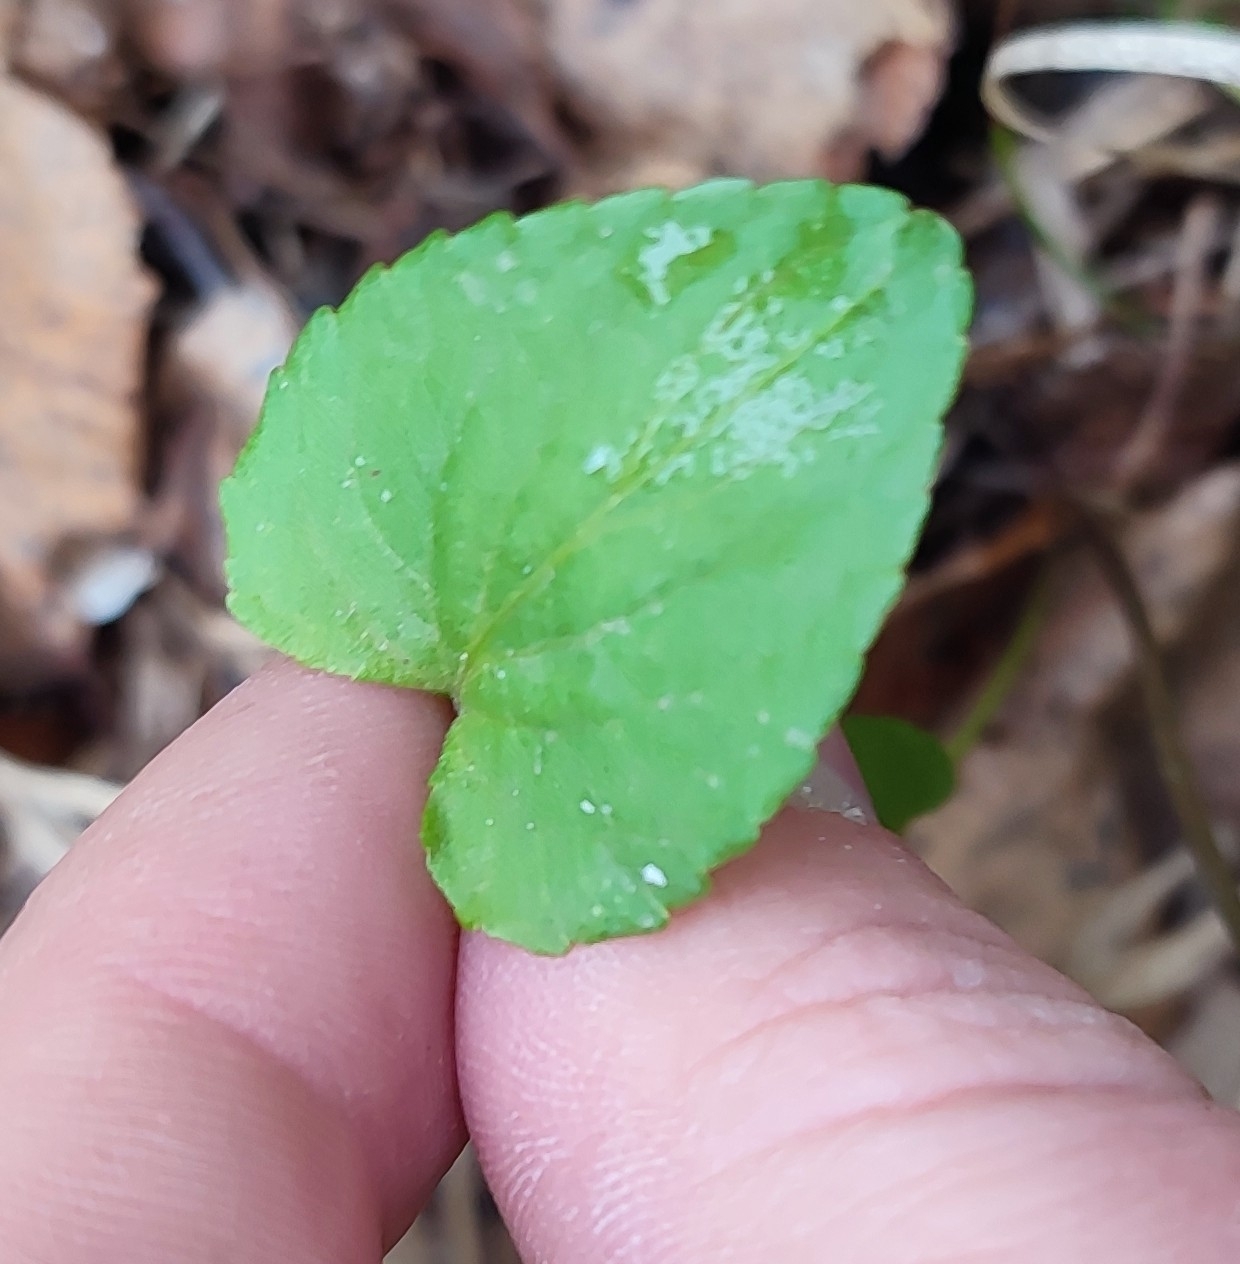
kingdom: Plantae
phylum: Tracheophyta
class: Magnoliopsida
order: Malpighiales
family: Violaceae
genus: Viola
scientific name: Viola
